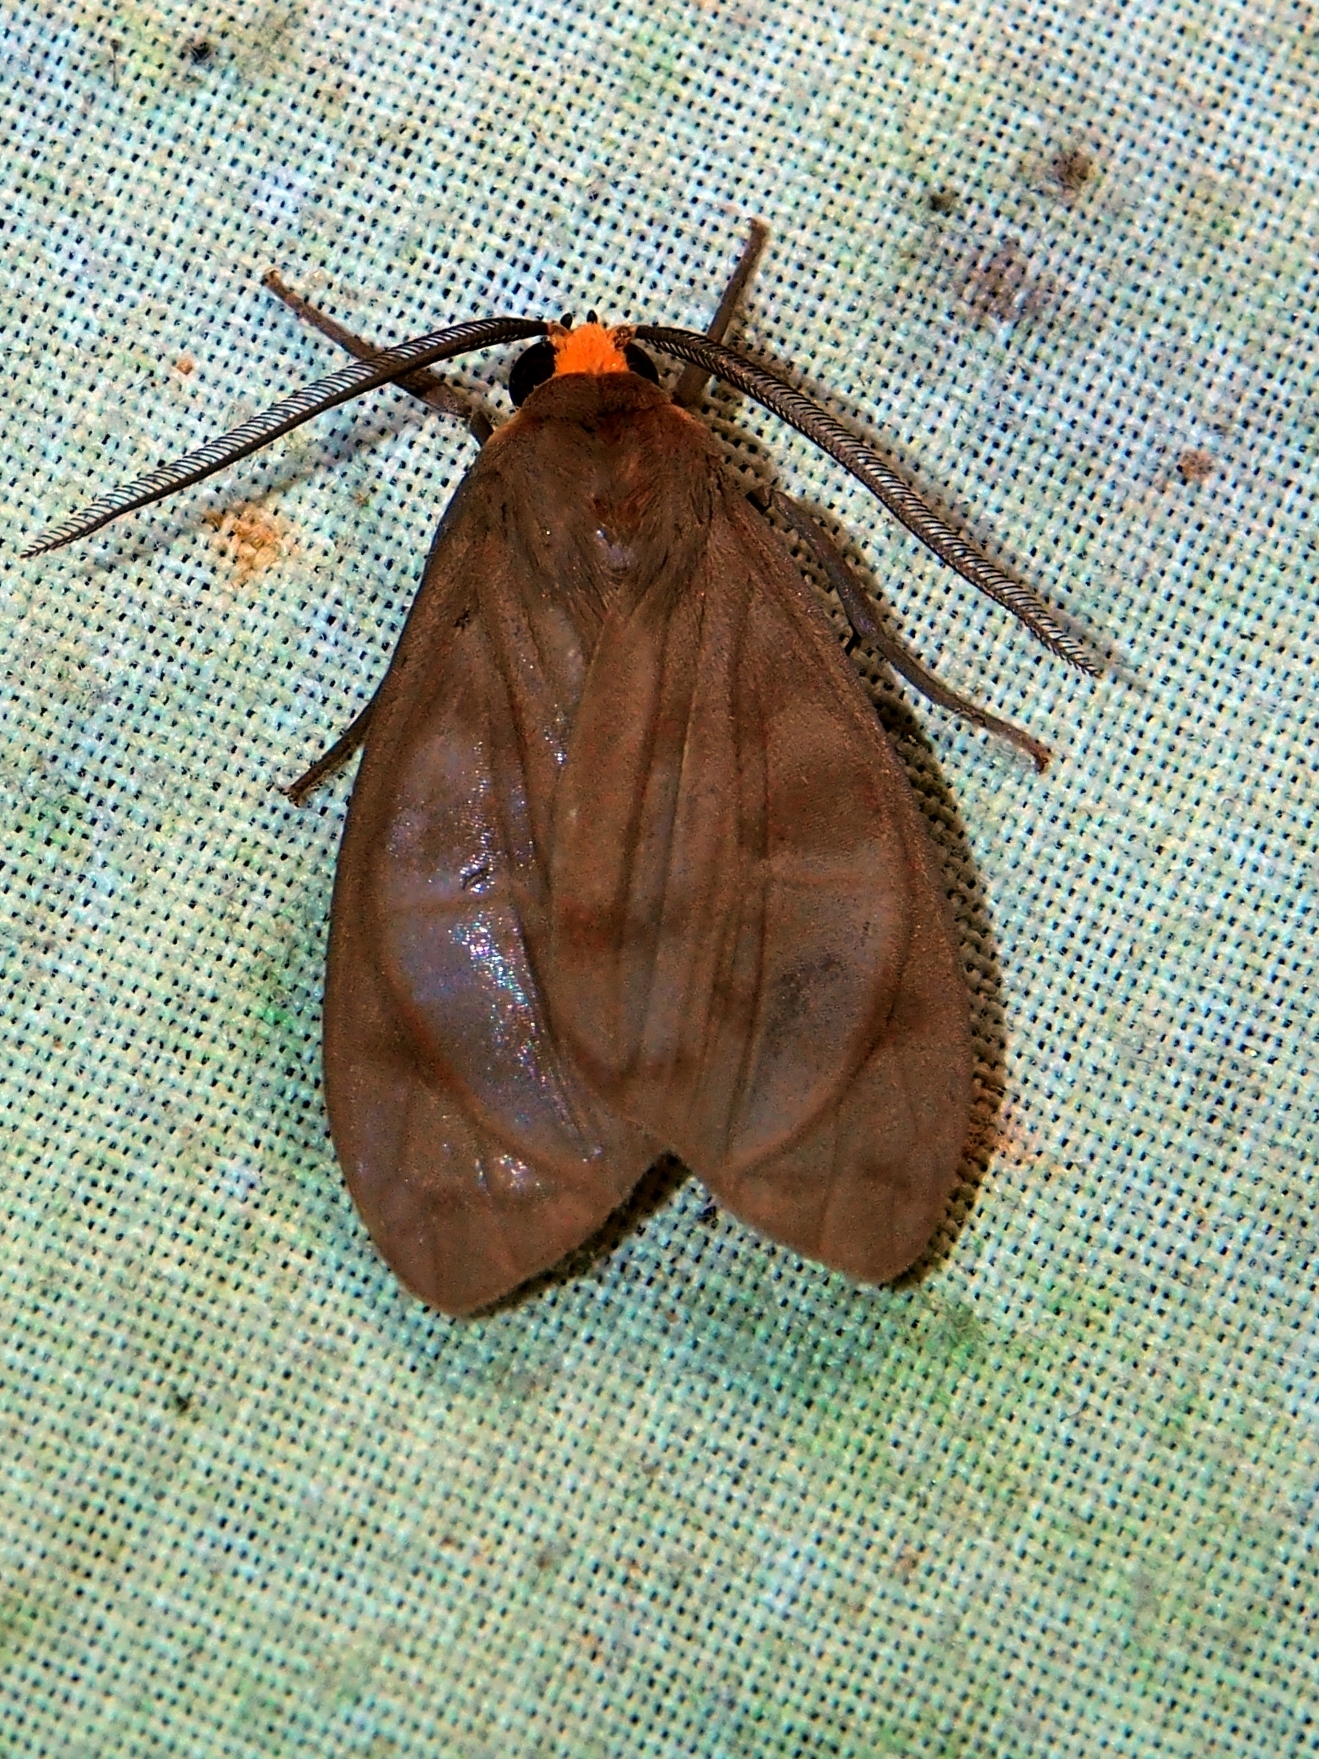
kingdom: Animalia
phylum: Arthropoda
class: Insecta
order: Lepidoptera
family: Erebidae
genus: Tricypha
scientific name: Tricypha imperialis
